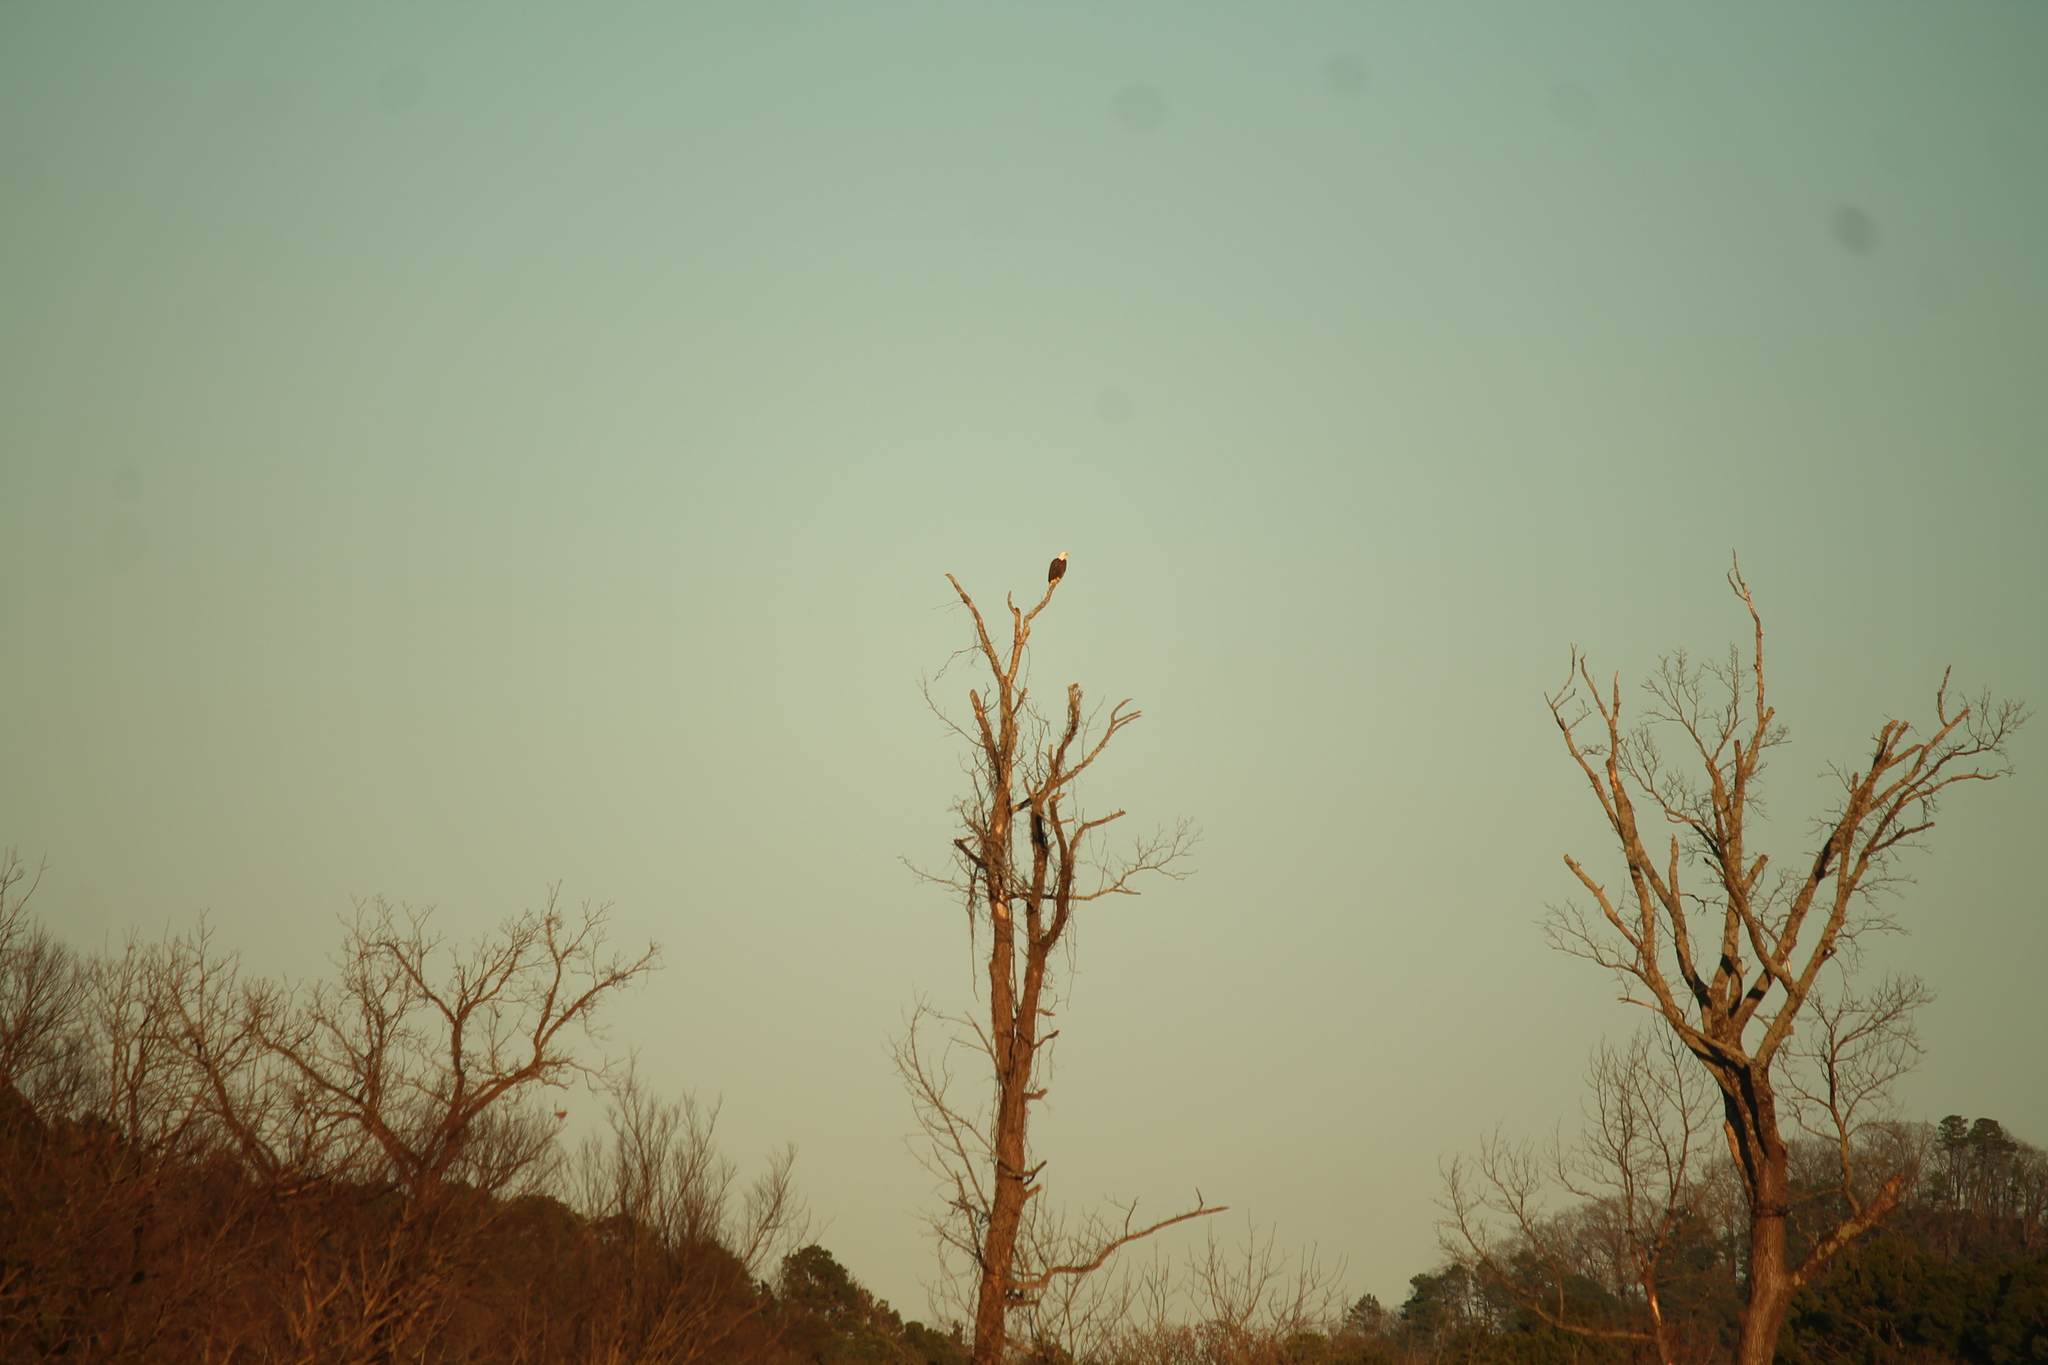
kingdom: Animalia
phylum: Chordata
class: Aves
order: Accipitriformes
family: Accipitridae
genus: Haliaeetus
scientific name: Haliaeetus leucocephalus
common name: Bald eagle
